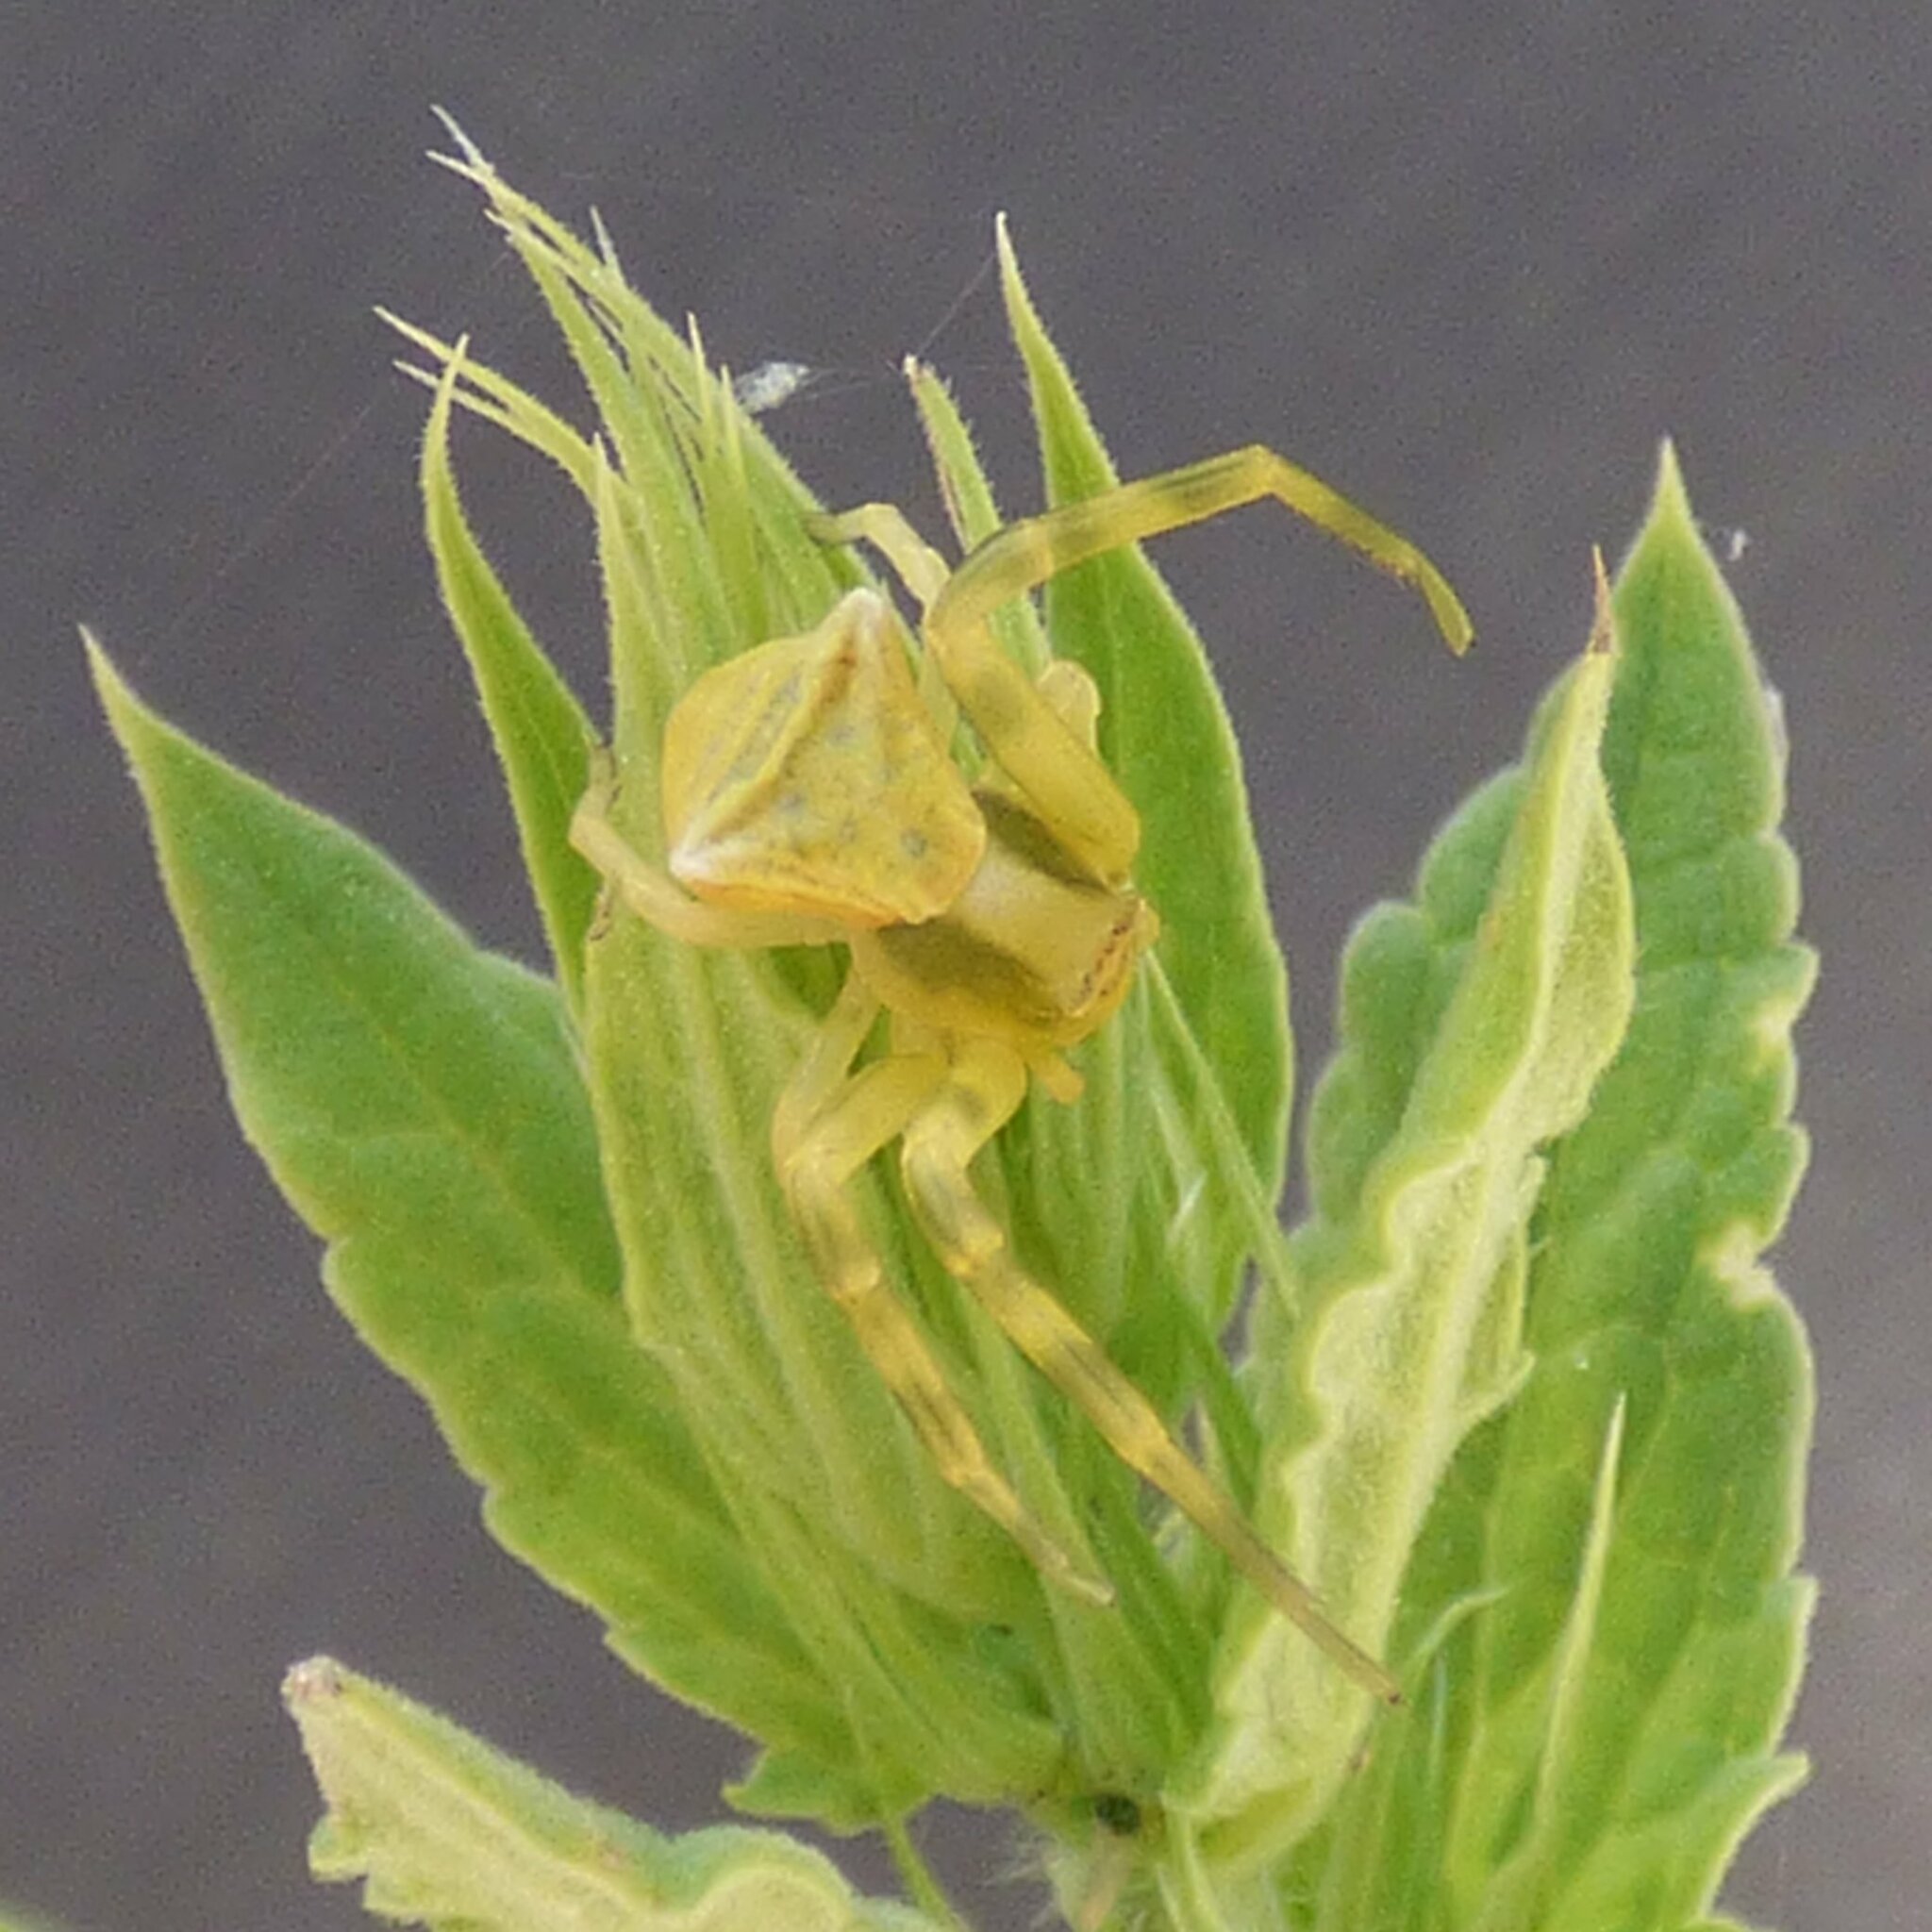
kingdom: Animalia
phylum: Arthropoda
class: Arachnida
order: Araneae
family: Thomisidae
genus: Thomisus
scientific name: Thomisus onustus
